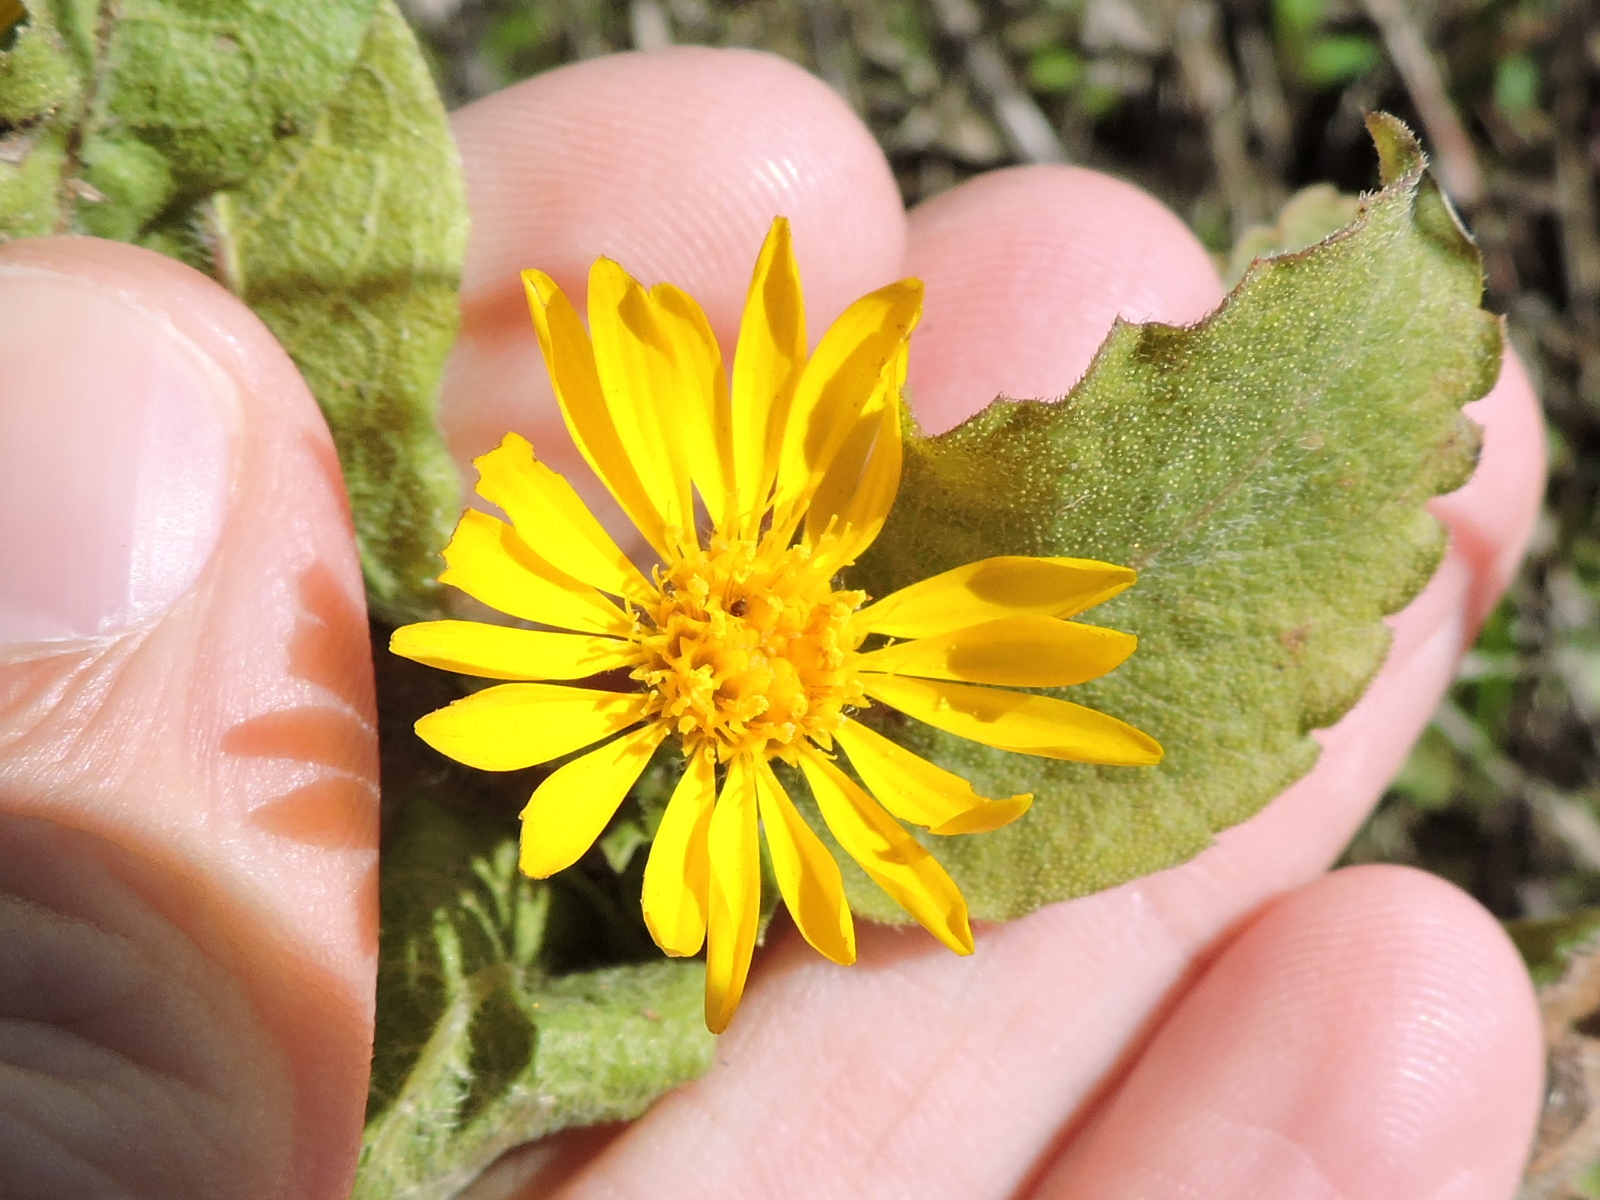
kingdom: Plantae
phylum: Tracheophyta
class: Magnoliopsida
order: Asterales
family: Asteraceae
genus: Heterotheca
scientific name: Heterotheca subaxillaris
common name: Camphorweed
